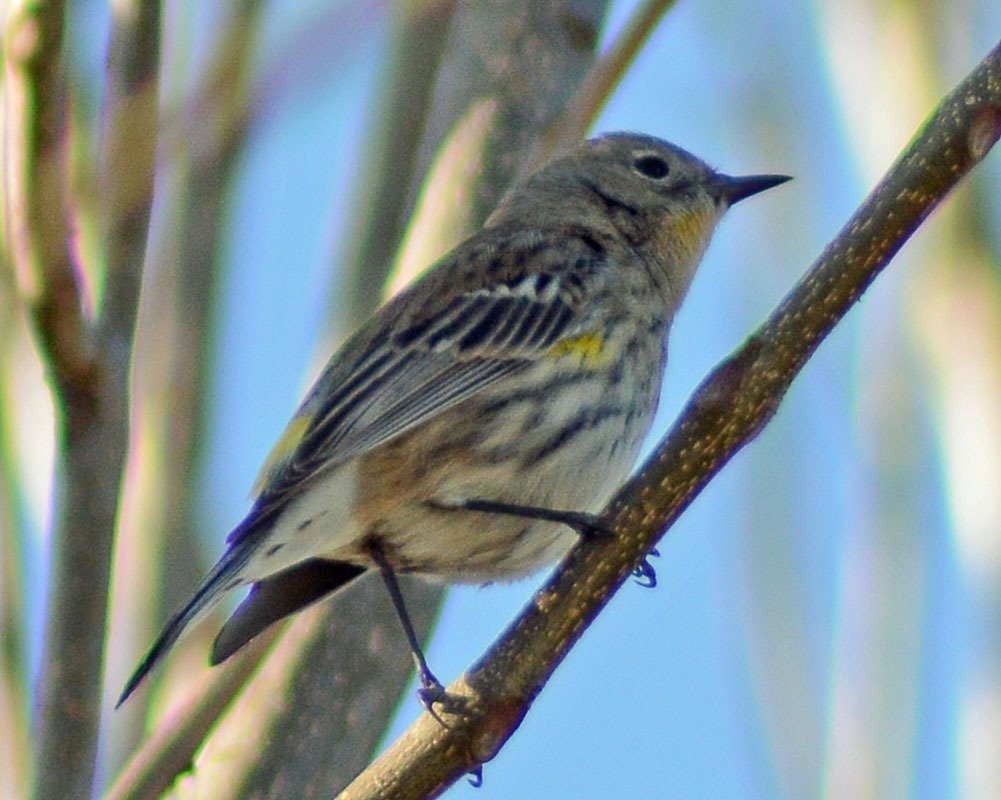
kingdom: Animalia
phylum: Chordata
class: Aves
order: Passeriformes
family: Parulidae
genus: Setophaga
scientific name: Setophaga coronata
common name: Myrtle warbler
